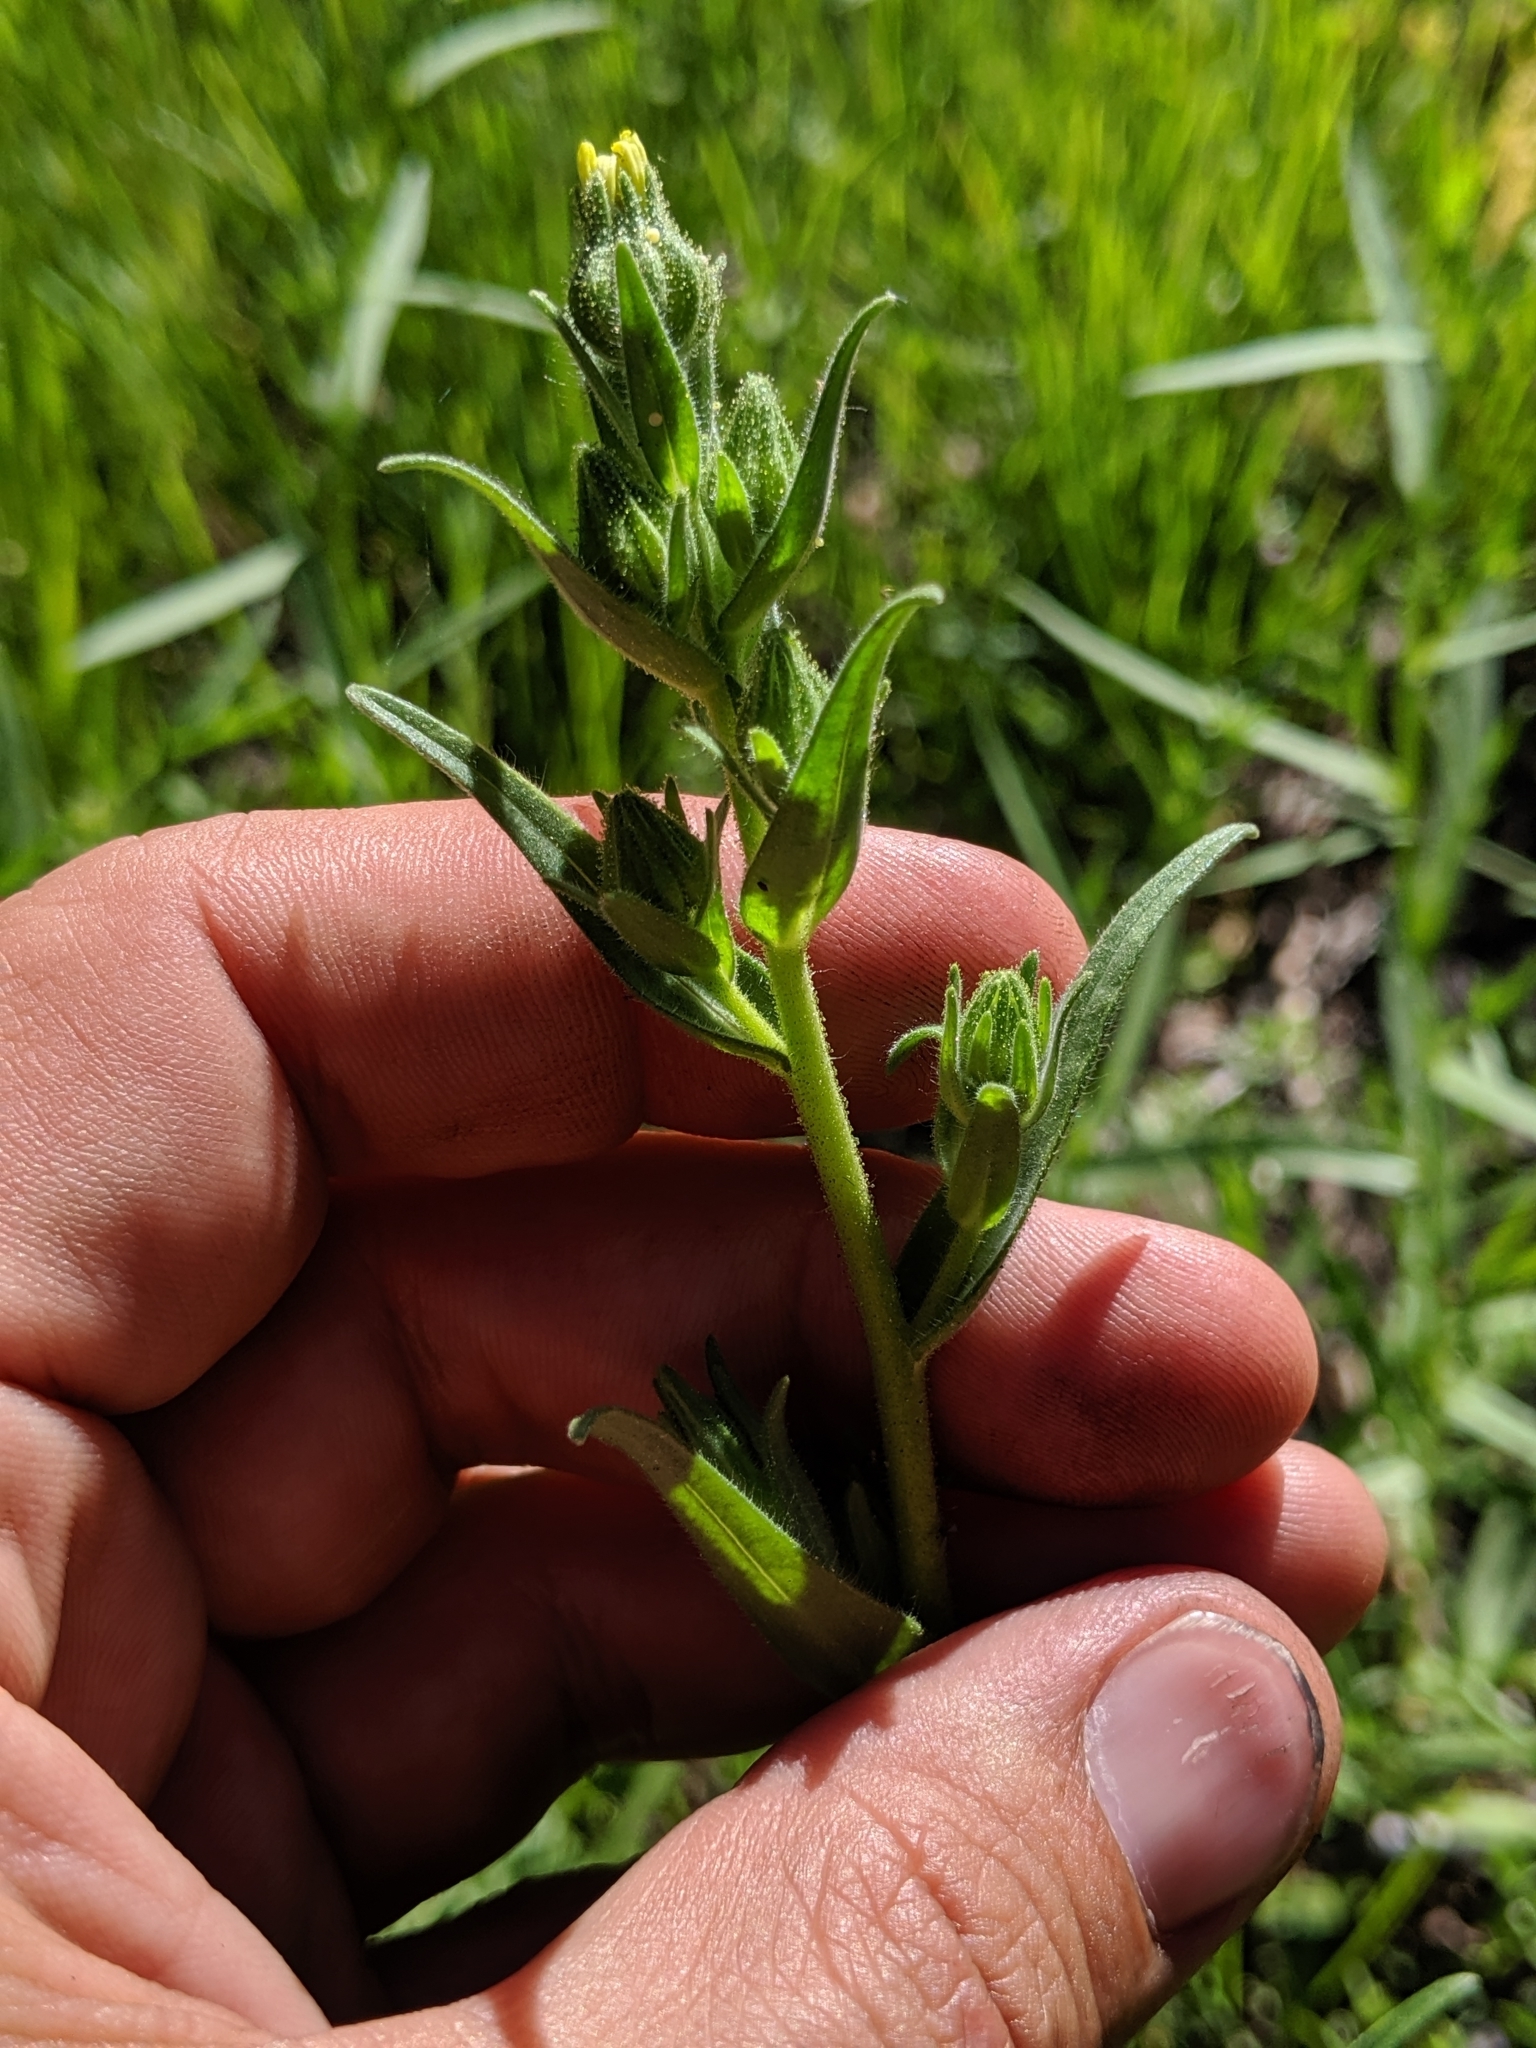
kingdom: Plantae
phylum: Tracheophyta
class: Magnoliopsida
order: Asterales
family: Asteraceae
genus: Madia
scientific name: Madia gracilis
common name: Grassy tarweed
